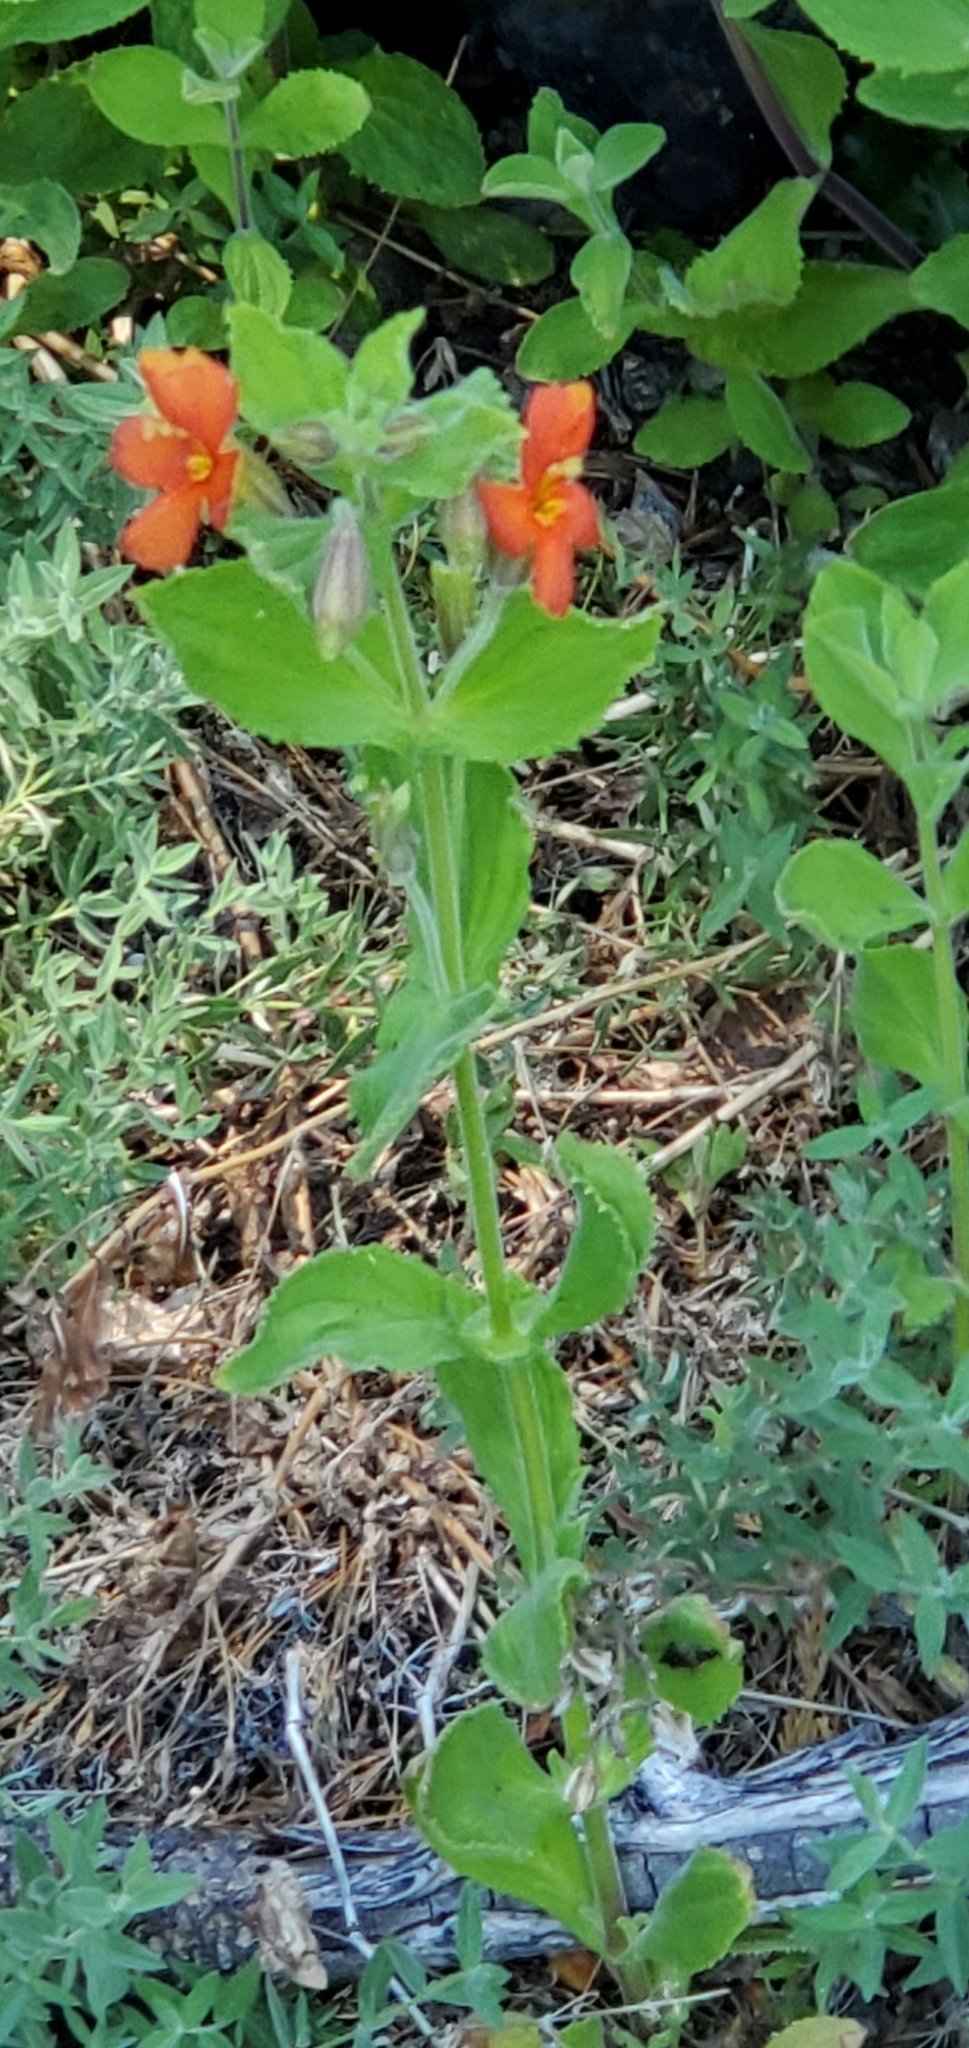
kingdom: Plantae
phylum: Tracheophyta
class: Magnoliopsida
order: Lamiales
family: Phrymaceae
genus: Erythranthe
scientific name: Erythranthe cardinalis
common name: Scarlet monkey-flower
